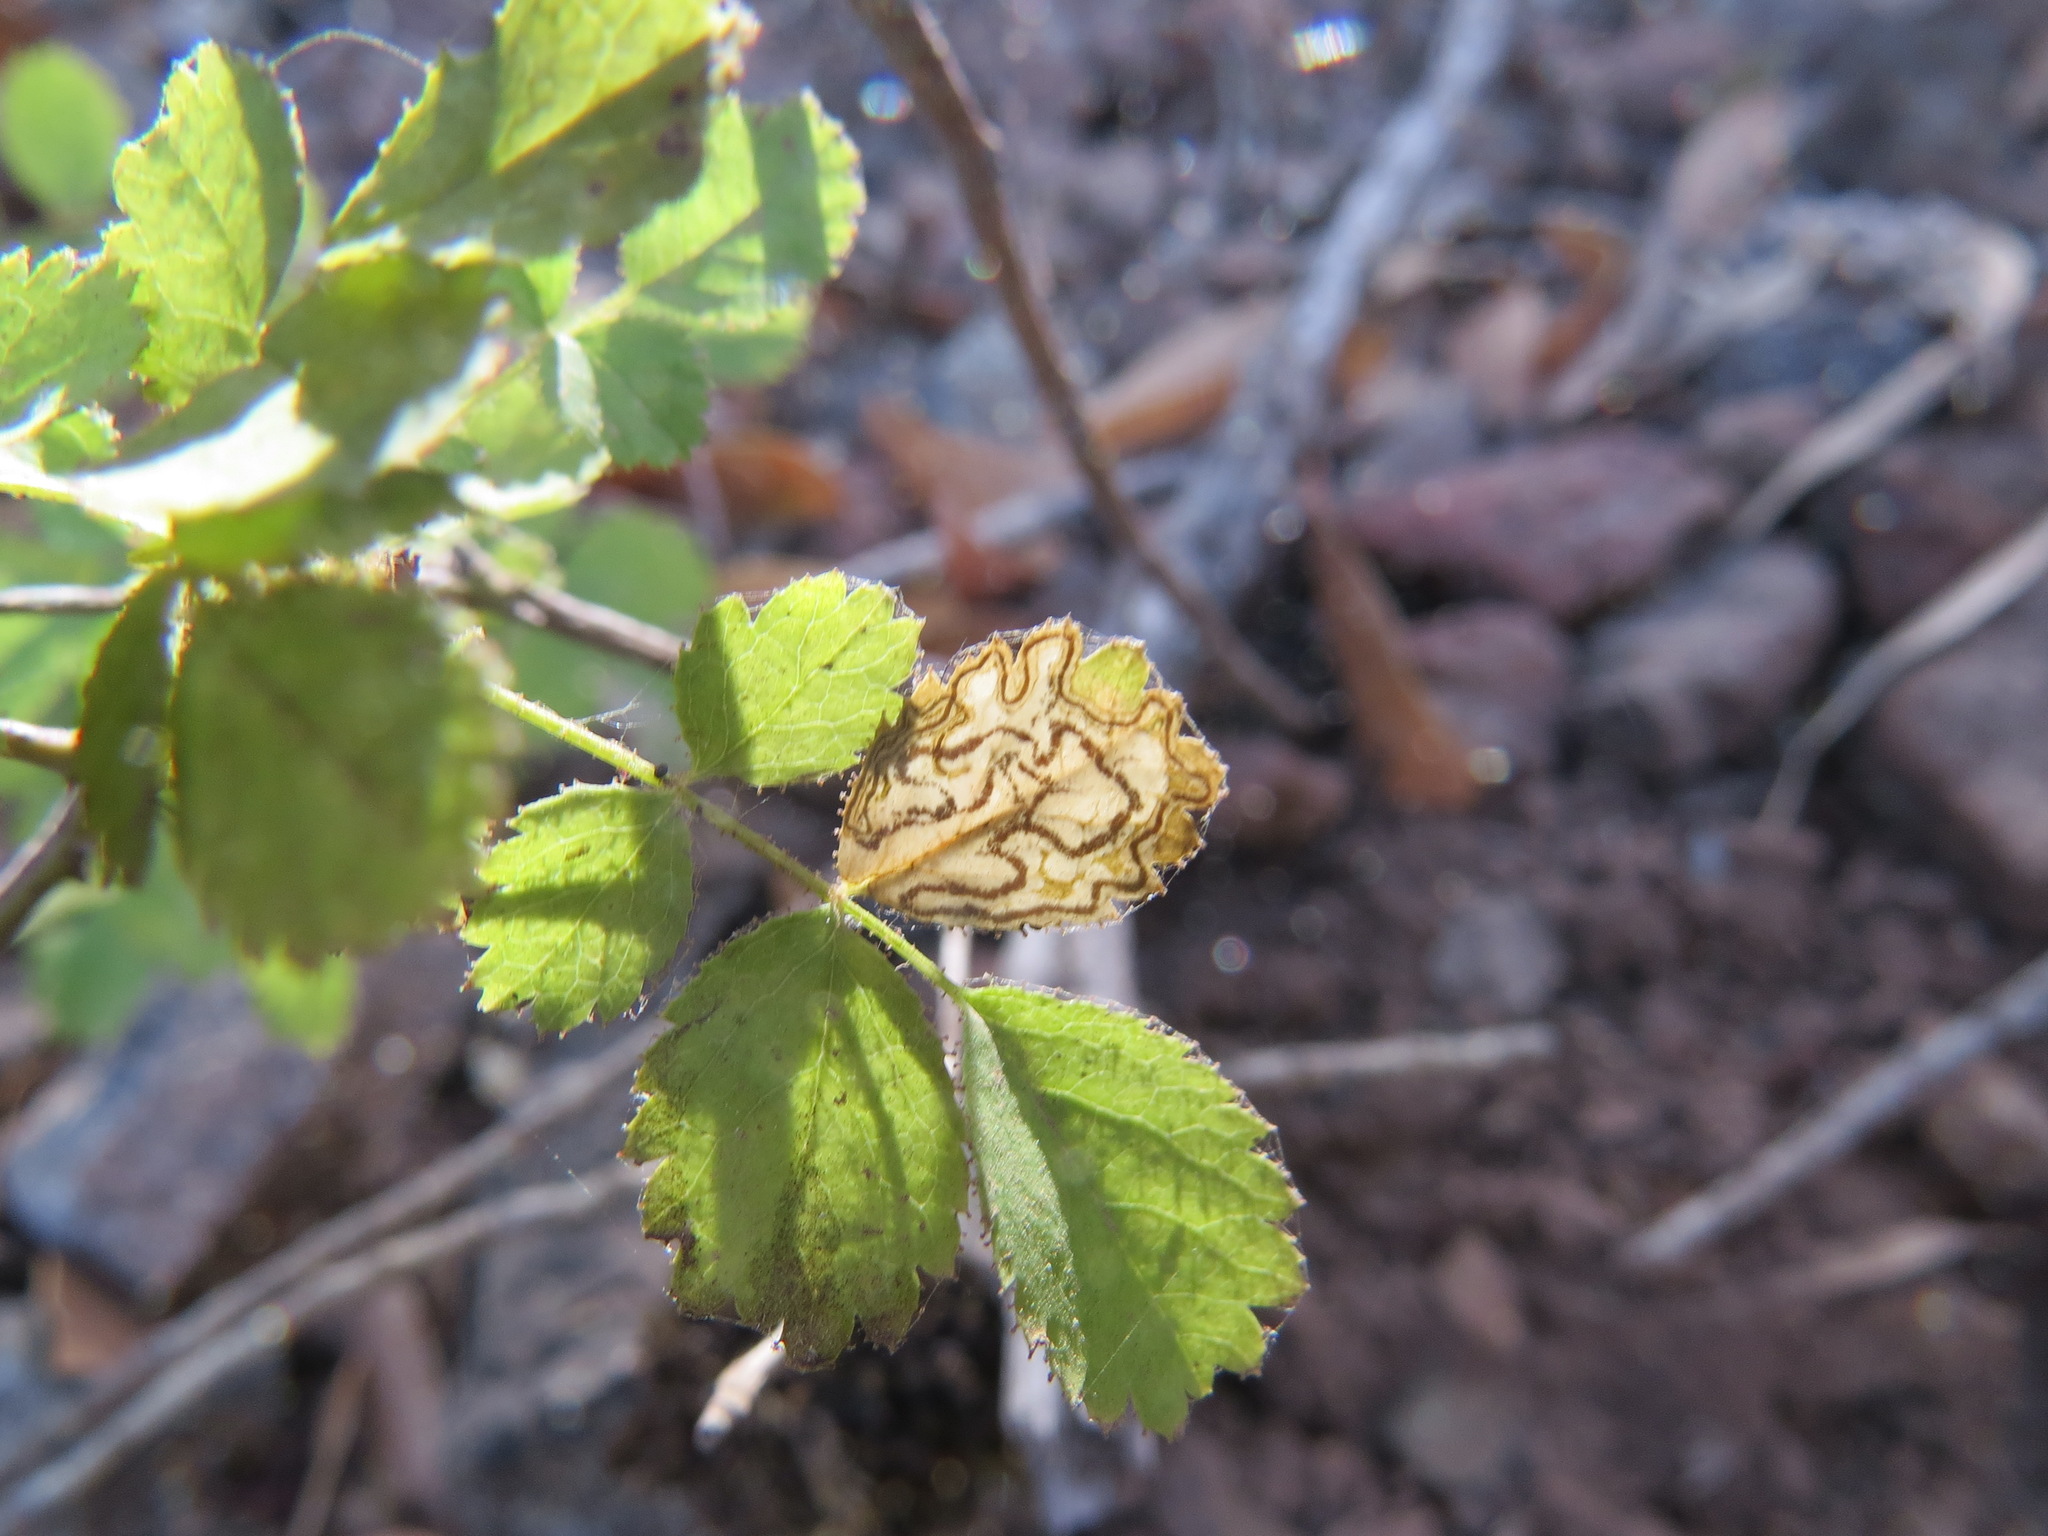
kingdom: Animalia
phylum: Arthropoda
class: Insecta
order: Lepidoptera
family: Nepticulidae
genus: Stigmella
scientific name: Stigmella centifoliella
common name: Narrow-barred pigmy
